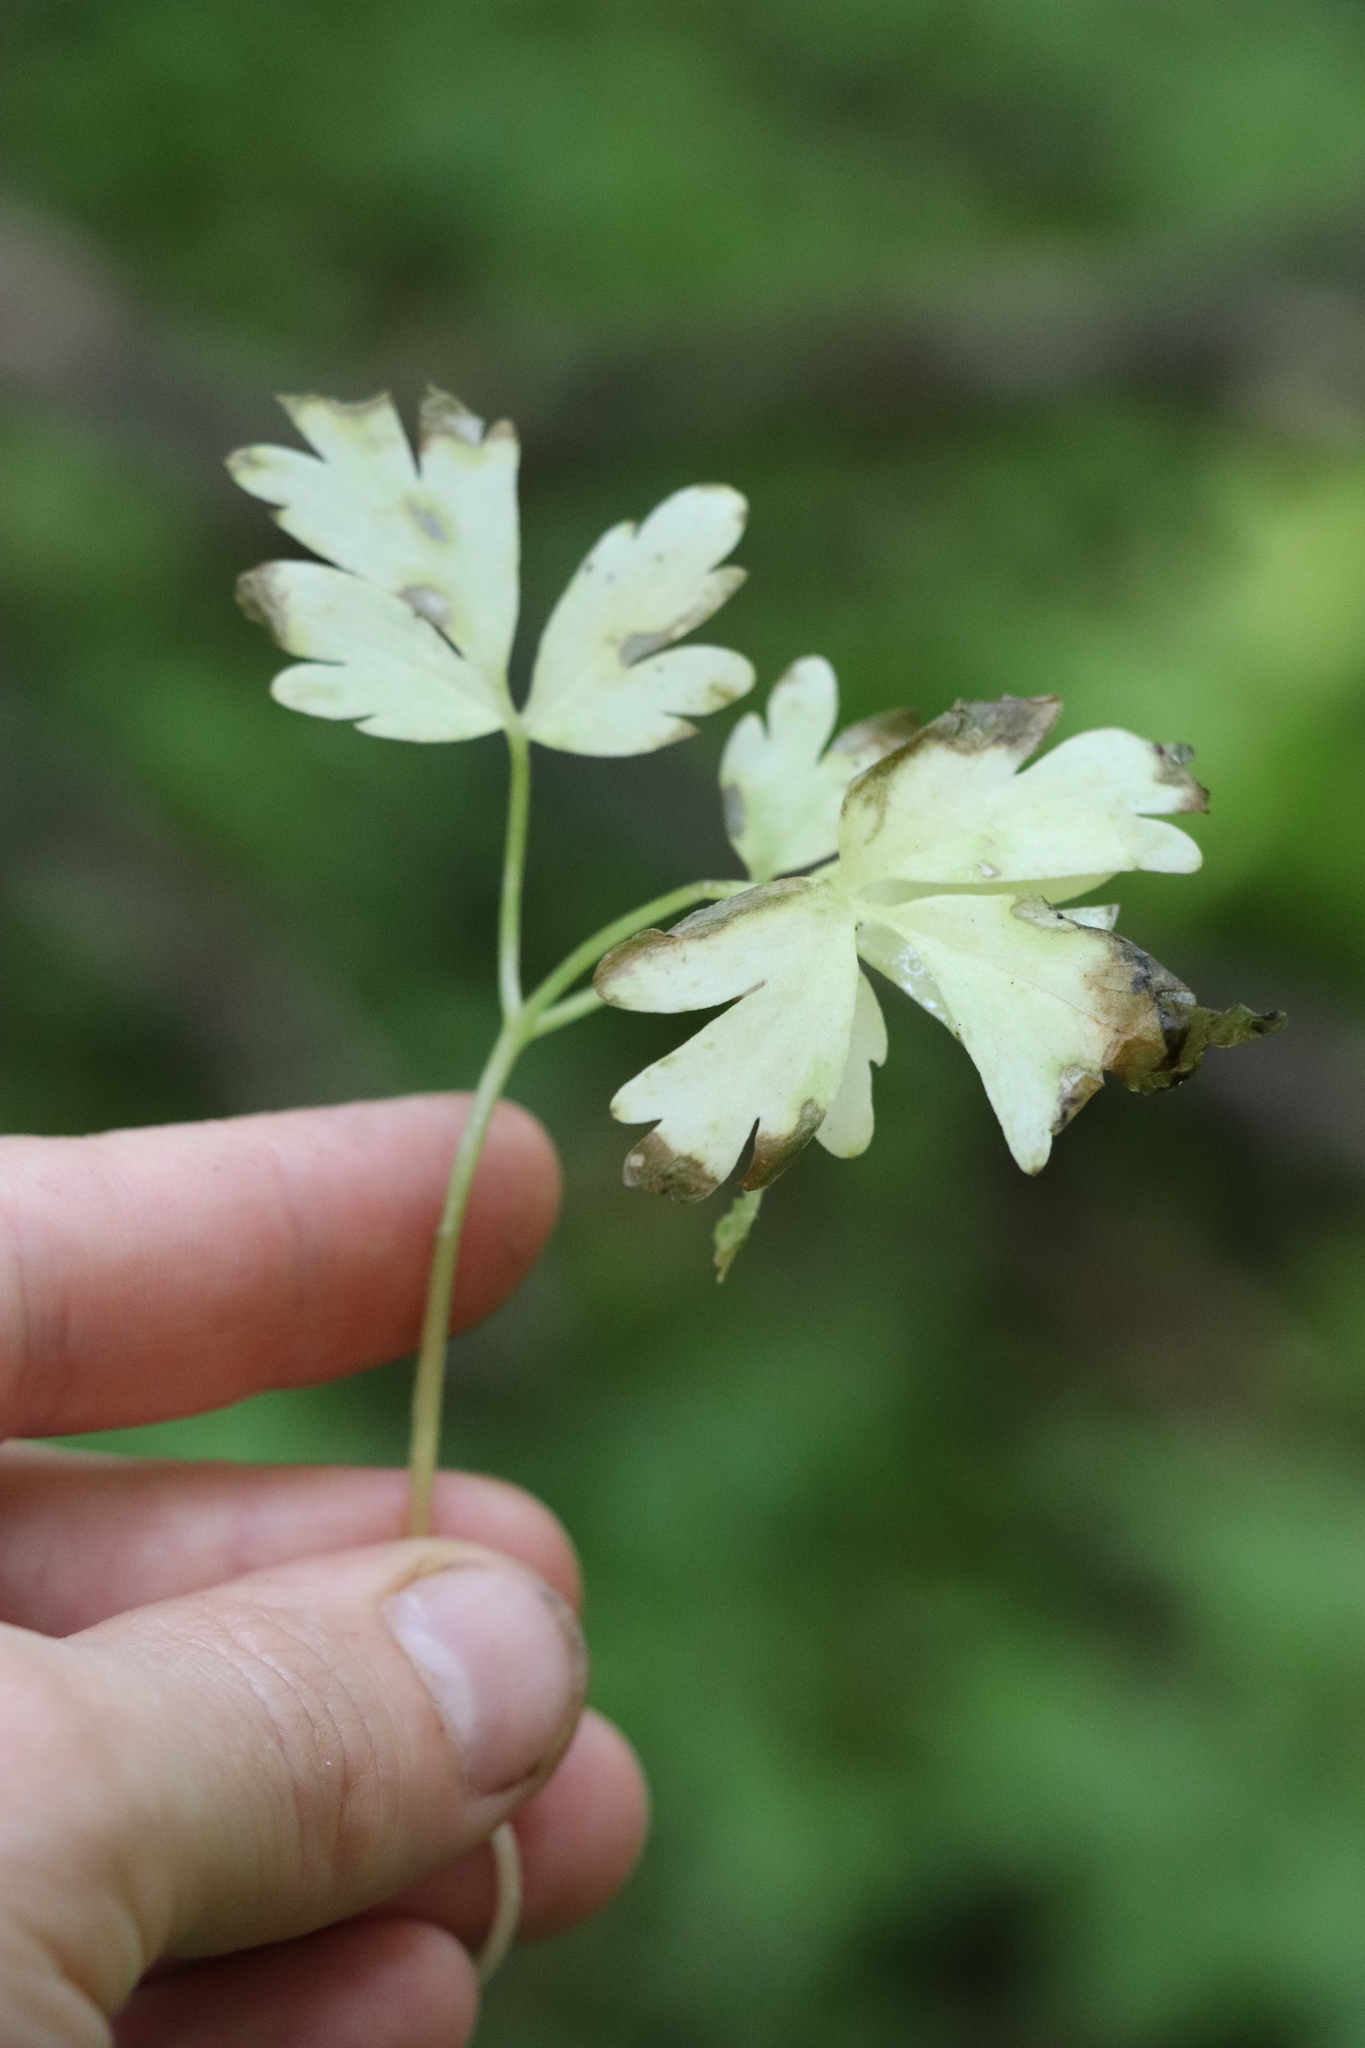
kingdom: Plantae
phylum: Tracheophyta
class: Magnoliopsida
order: Dipsacales
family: Viburnaceae
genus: Adoxa
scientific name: Adoxa moschatellina
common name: Moschatel
